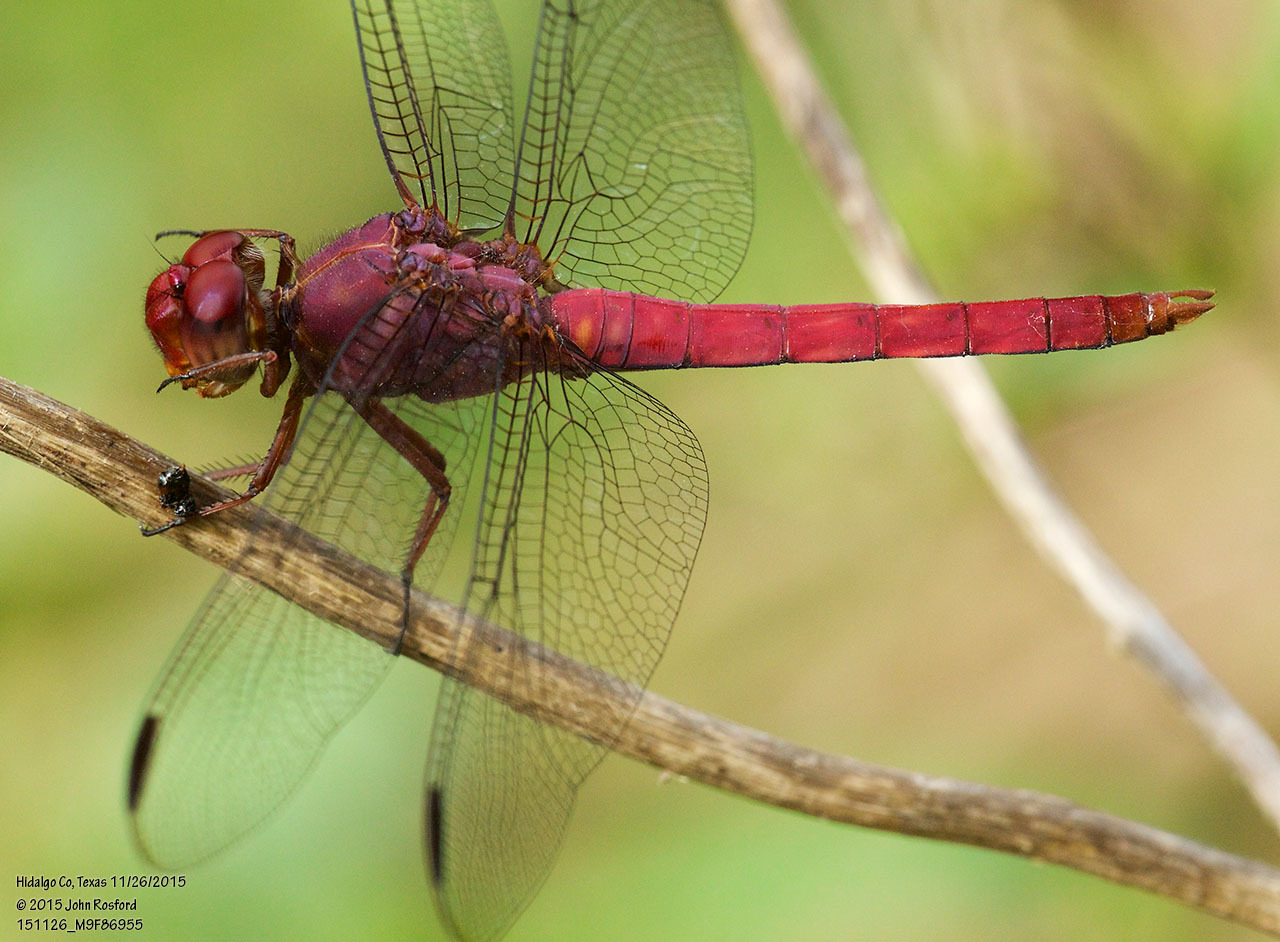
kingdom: Animalia
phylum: Arthropoda
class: Insecta
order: Odonata
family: Libellulidae
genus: Orthemis
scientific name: Orthemis discolor
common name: Carmine skimmer
